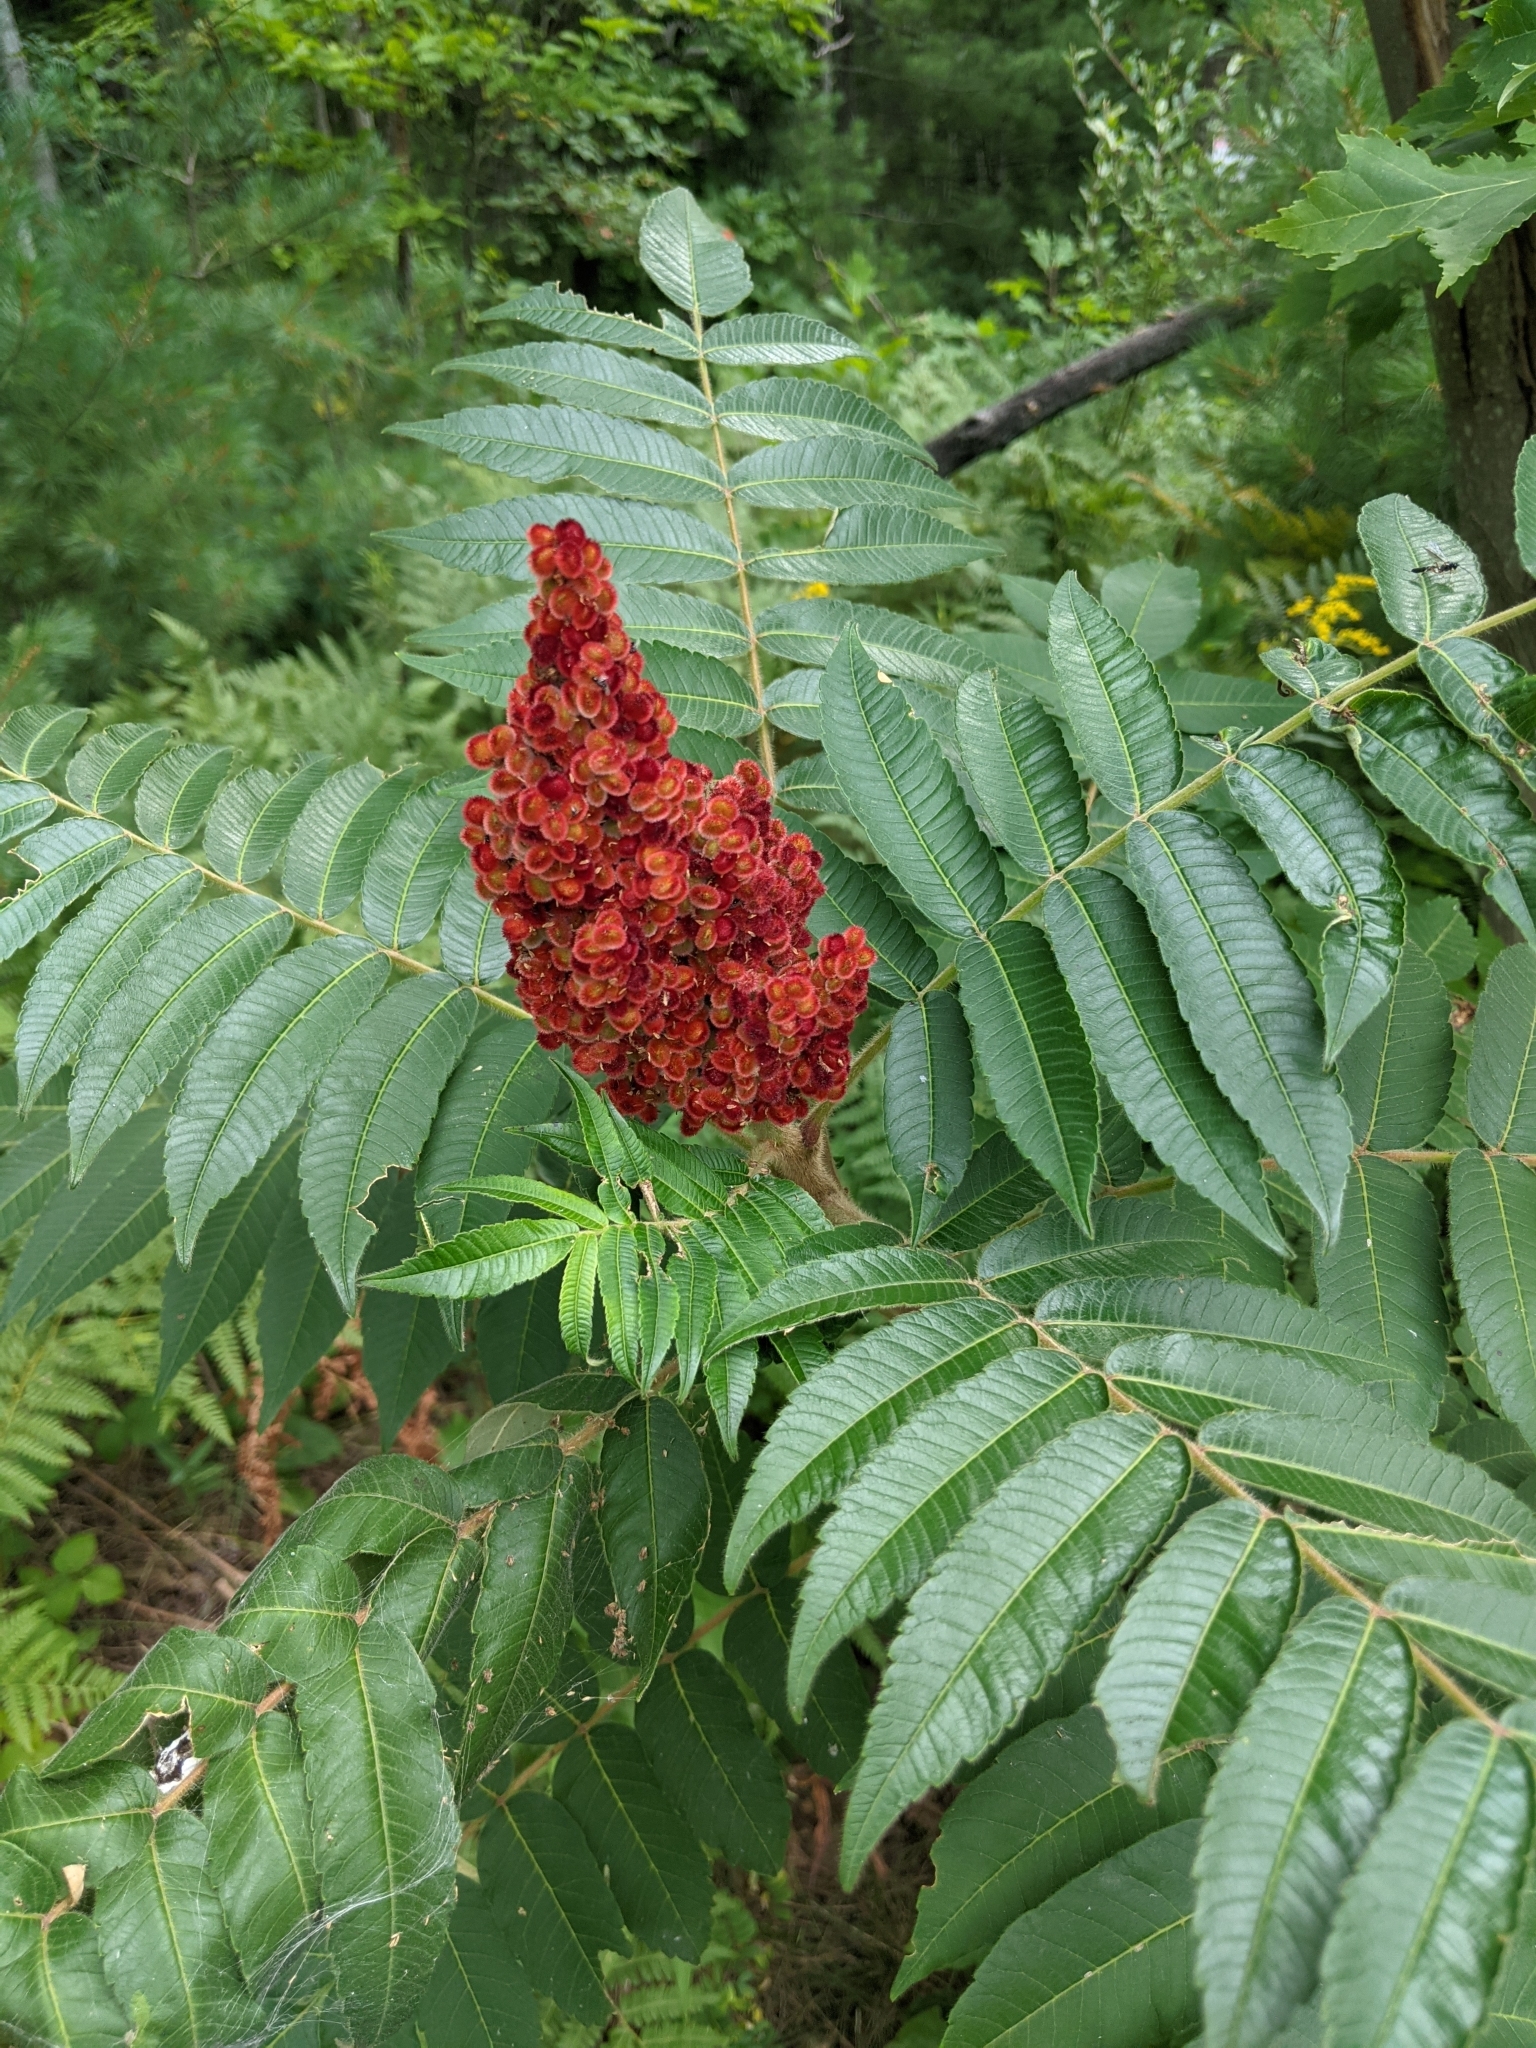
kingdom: Plantae
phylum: Tracheophyta
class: Magnoliopsida
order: Sapindales
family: Anacardiaceae
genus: Rhus
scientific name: Rhus typhina
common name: Staghorn sumac
